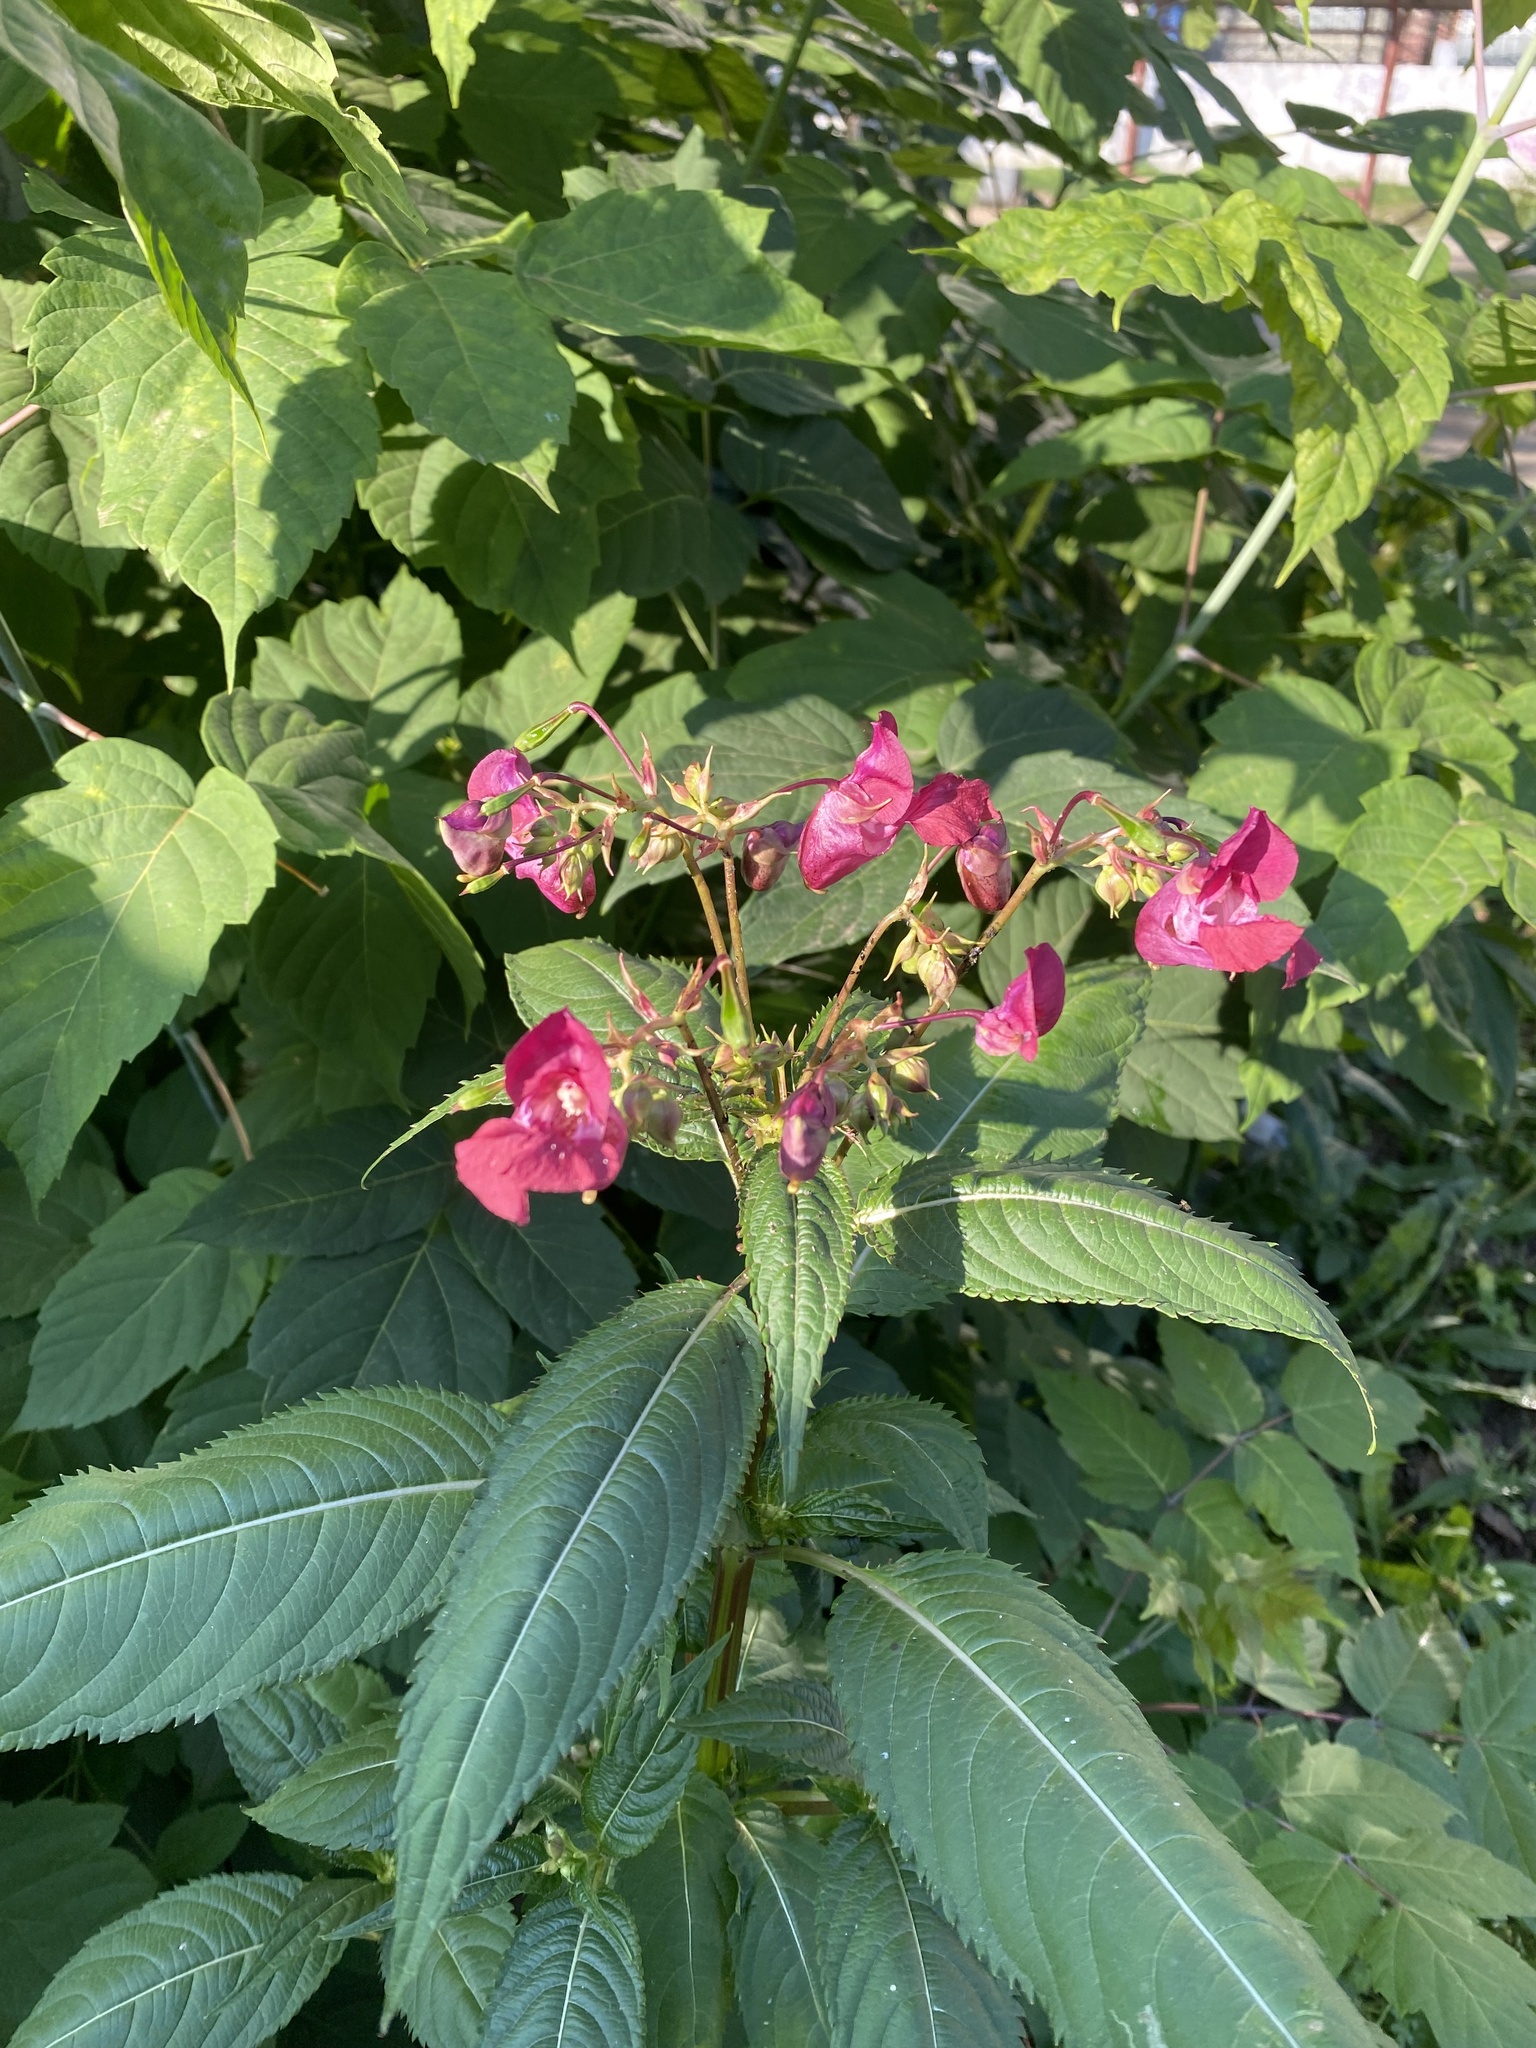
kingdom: Plantae
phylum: Tracheophyta
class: Magnoliopsida
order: Ericales
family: Balsaminaceae
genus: Impatiens
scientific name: Impatiens glandulifera
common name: Himalayan balsam
